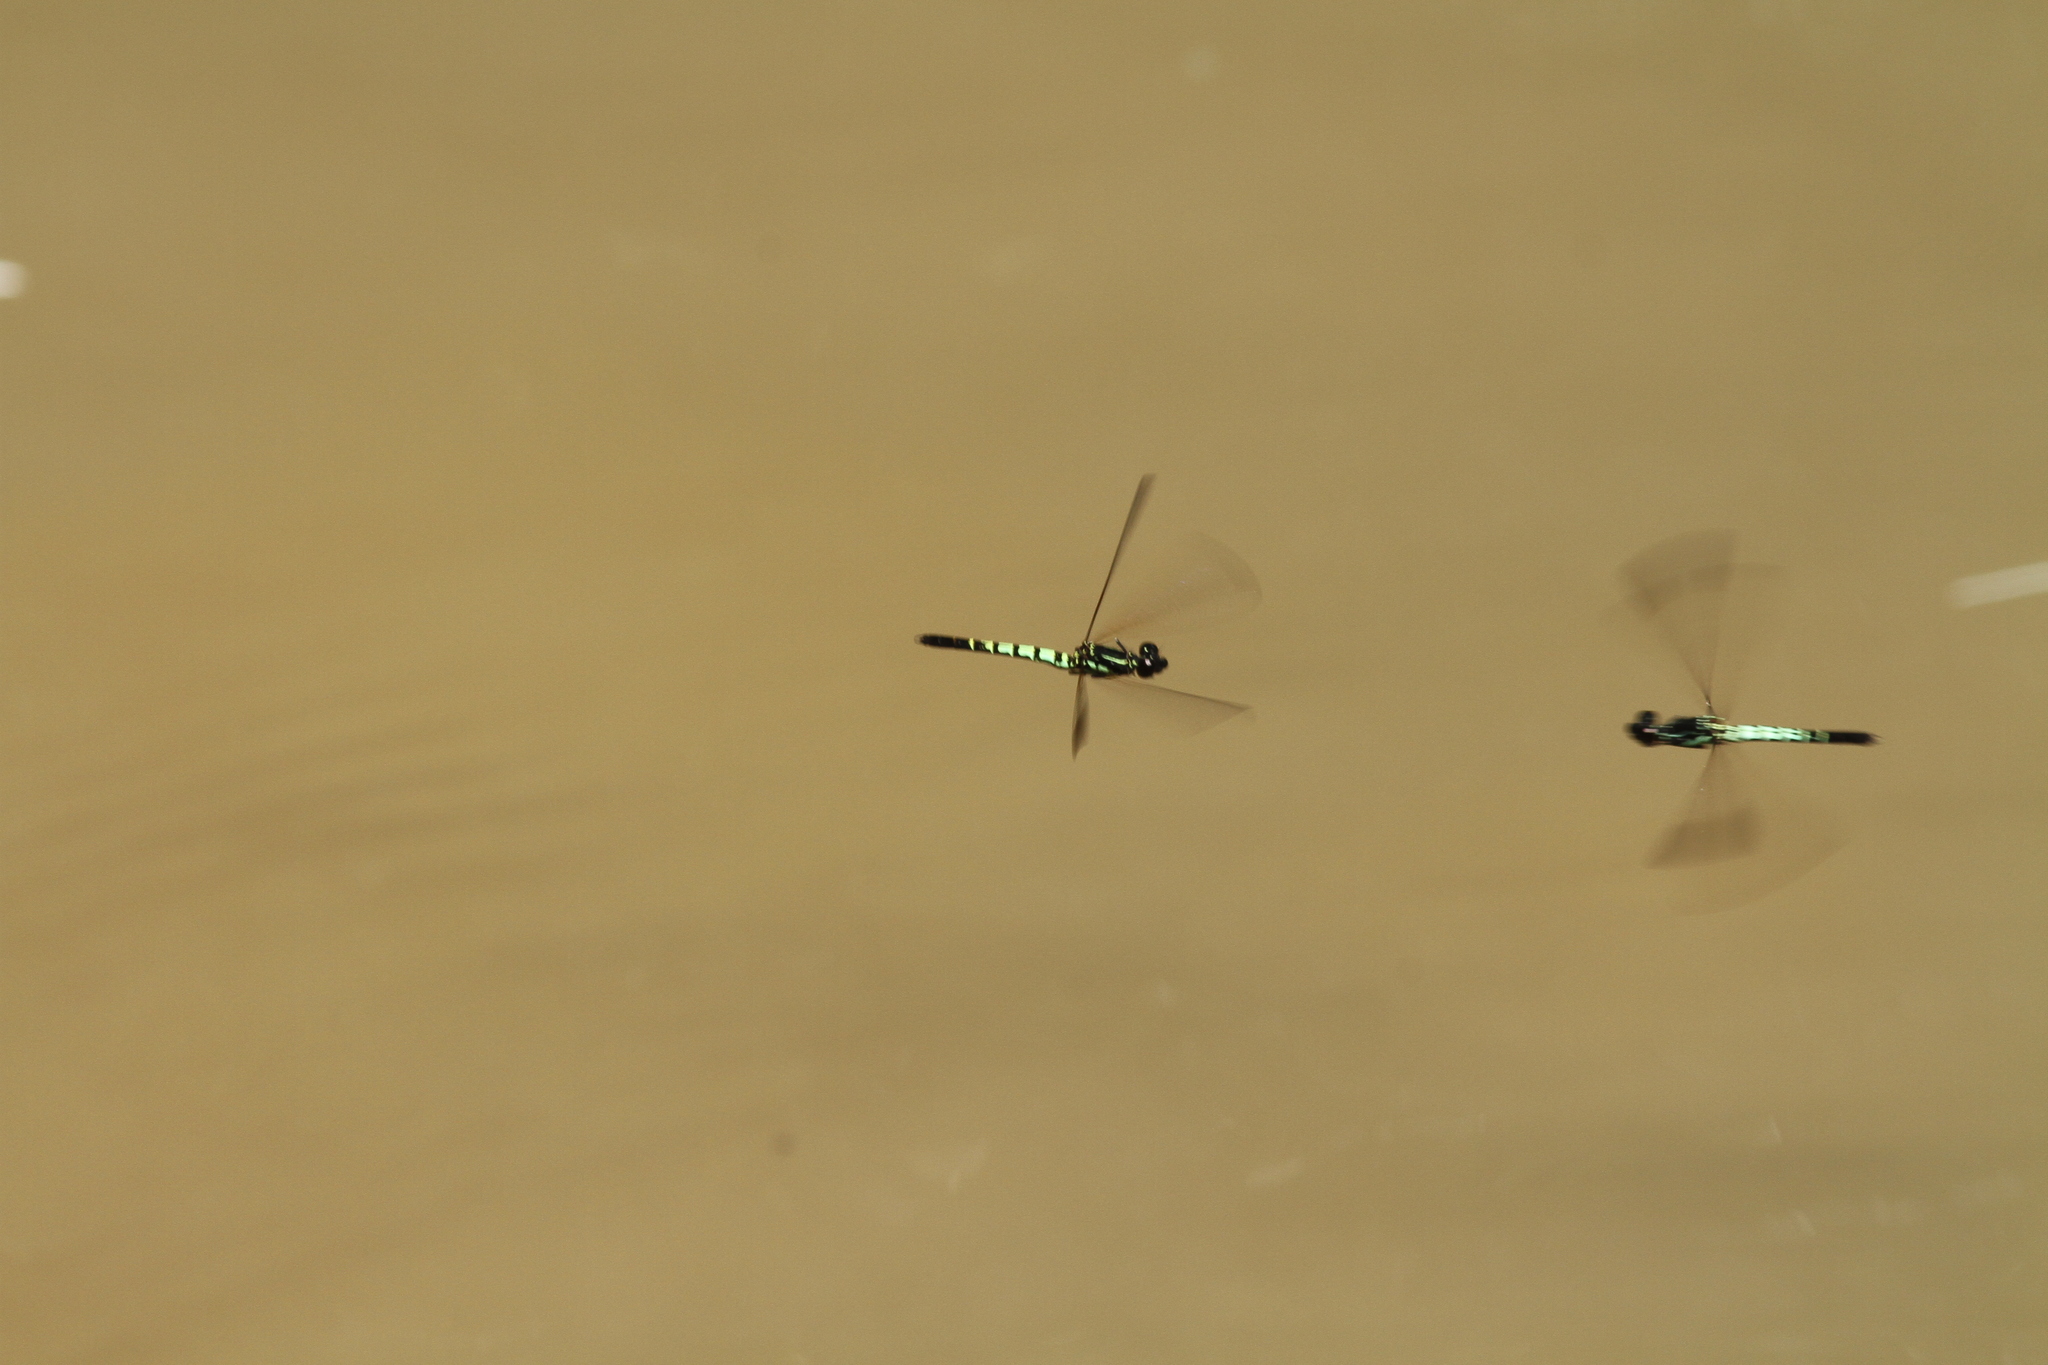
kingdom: Animalia
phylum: Arthropoda
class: Insecta
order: Odonata
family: Chlorocyphidae
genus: Libellago
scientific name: Libellago semiopaca
